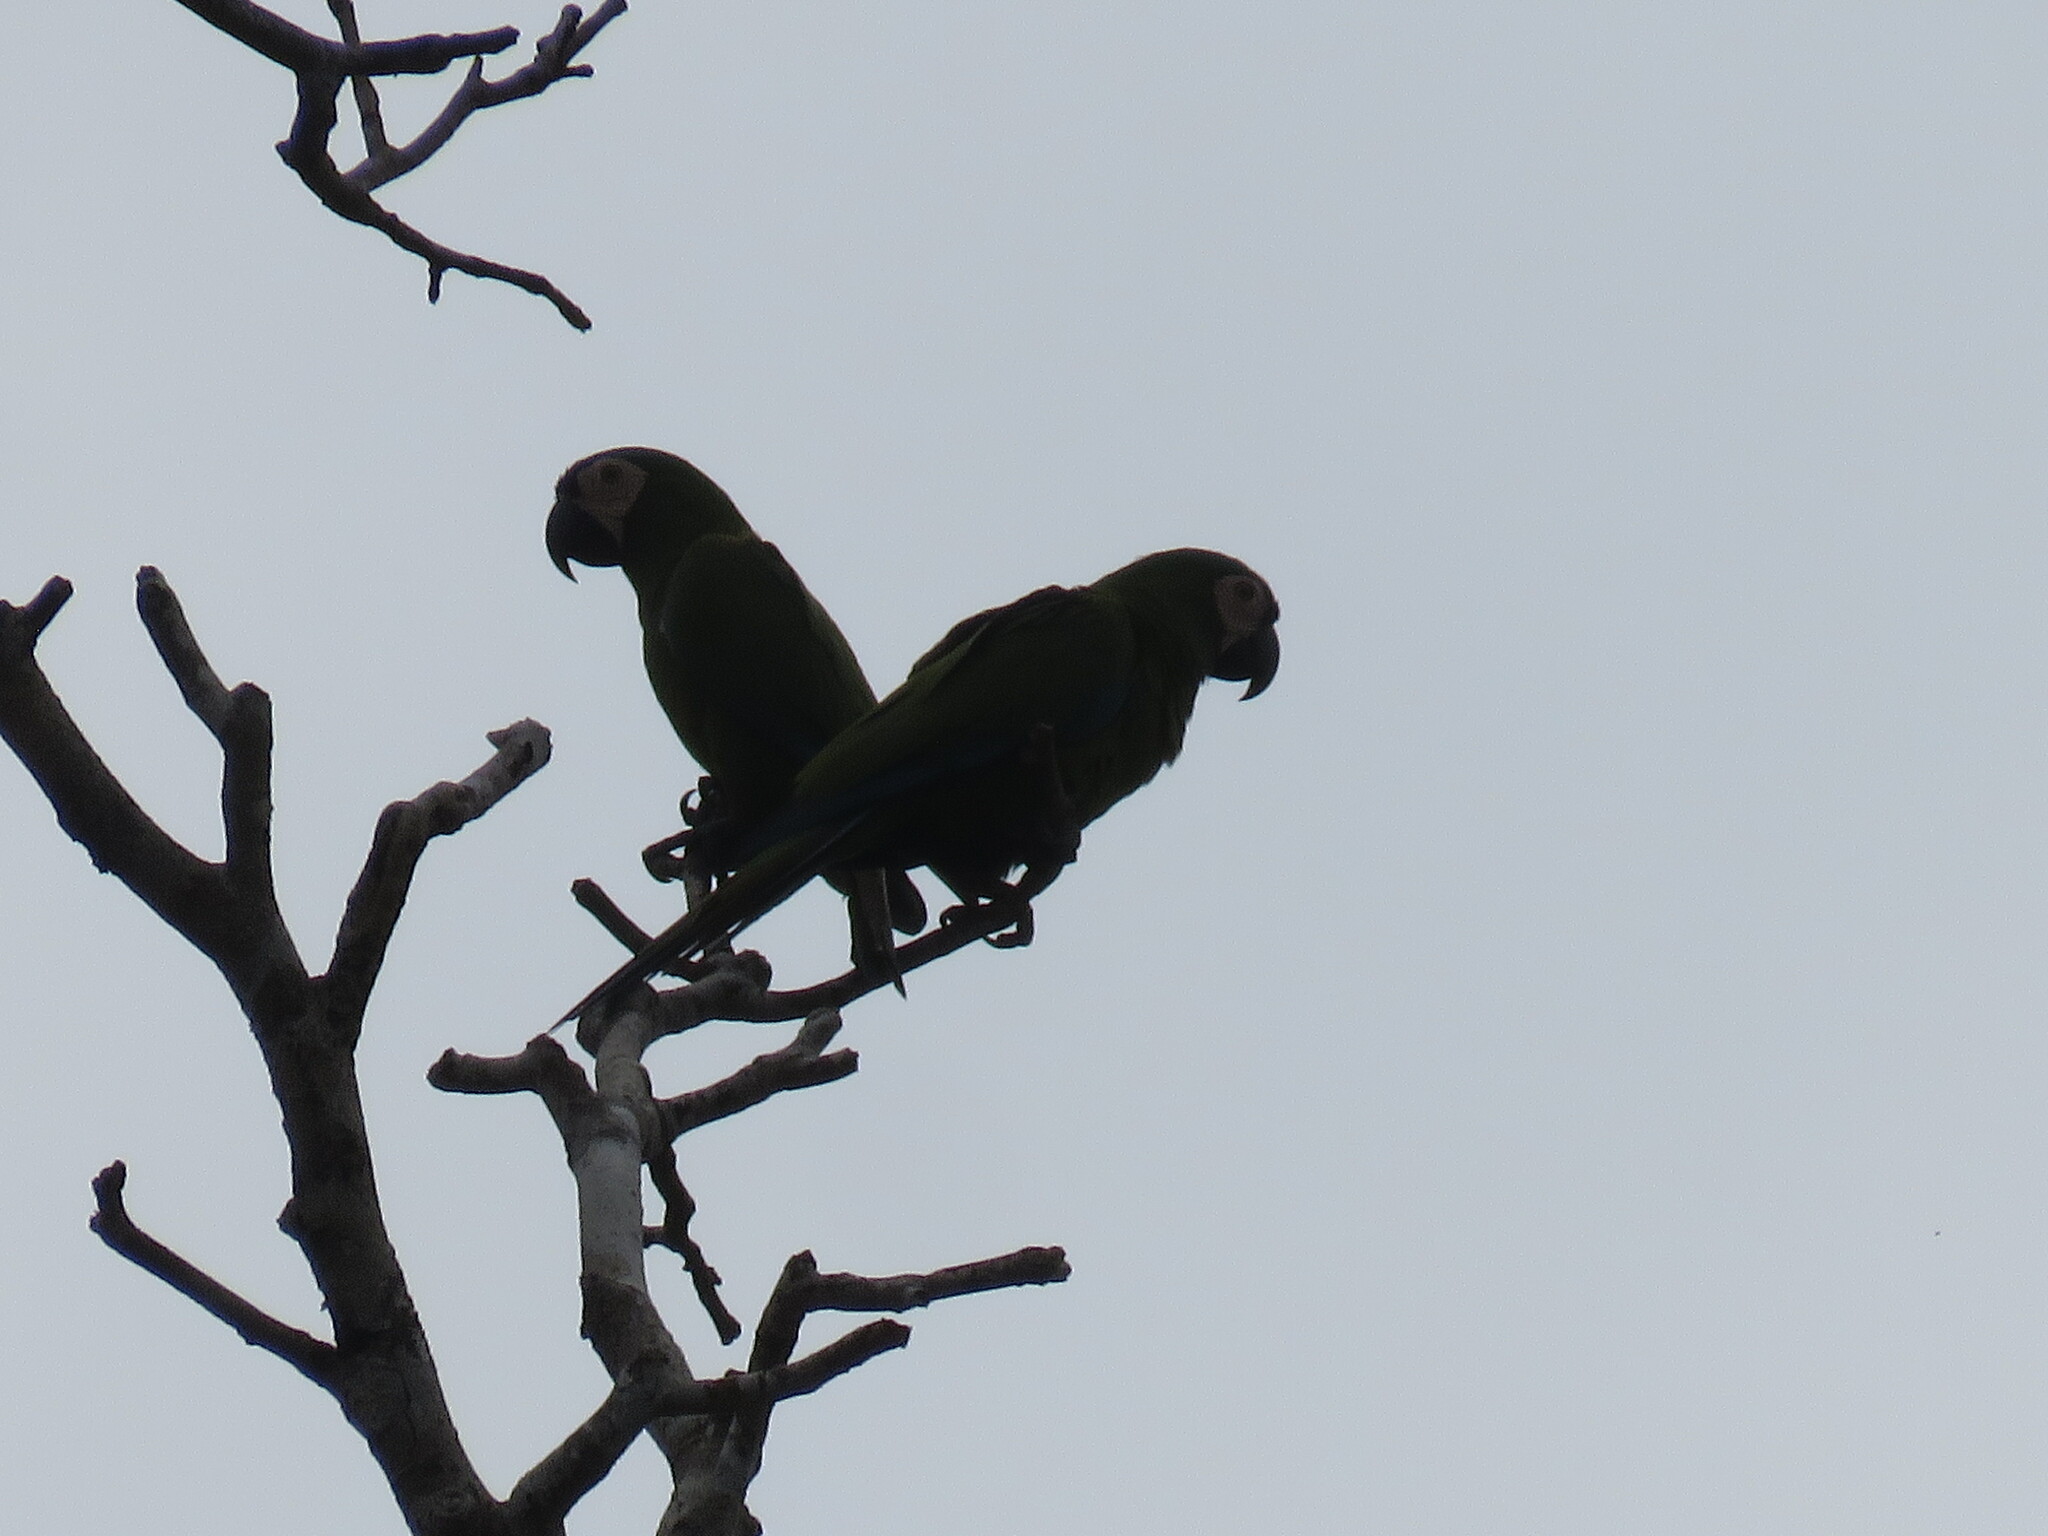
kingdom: Animalia
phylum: Chordata
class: Aves
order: Psittaciformes
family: Psittacidae
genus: Ara
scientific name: Ara severus
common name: Chestnut-fronted macaw
